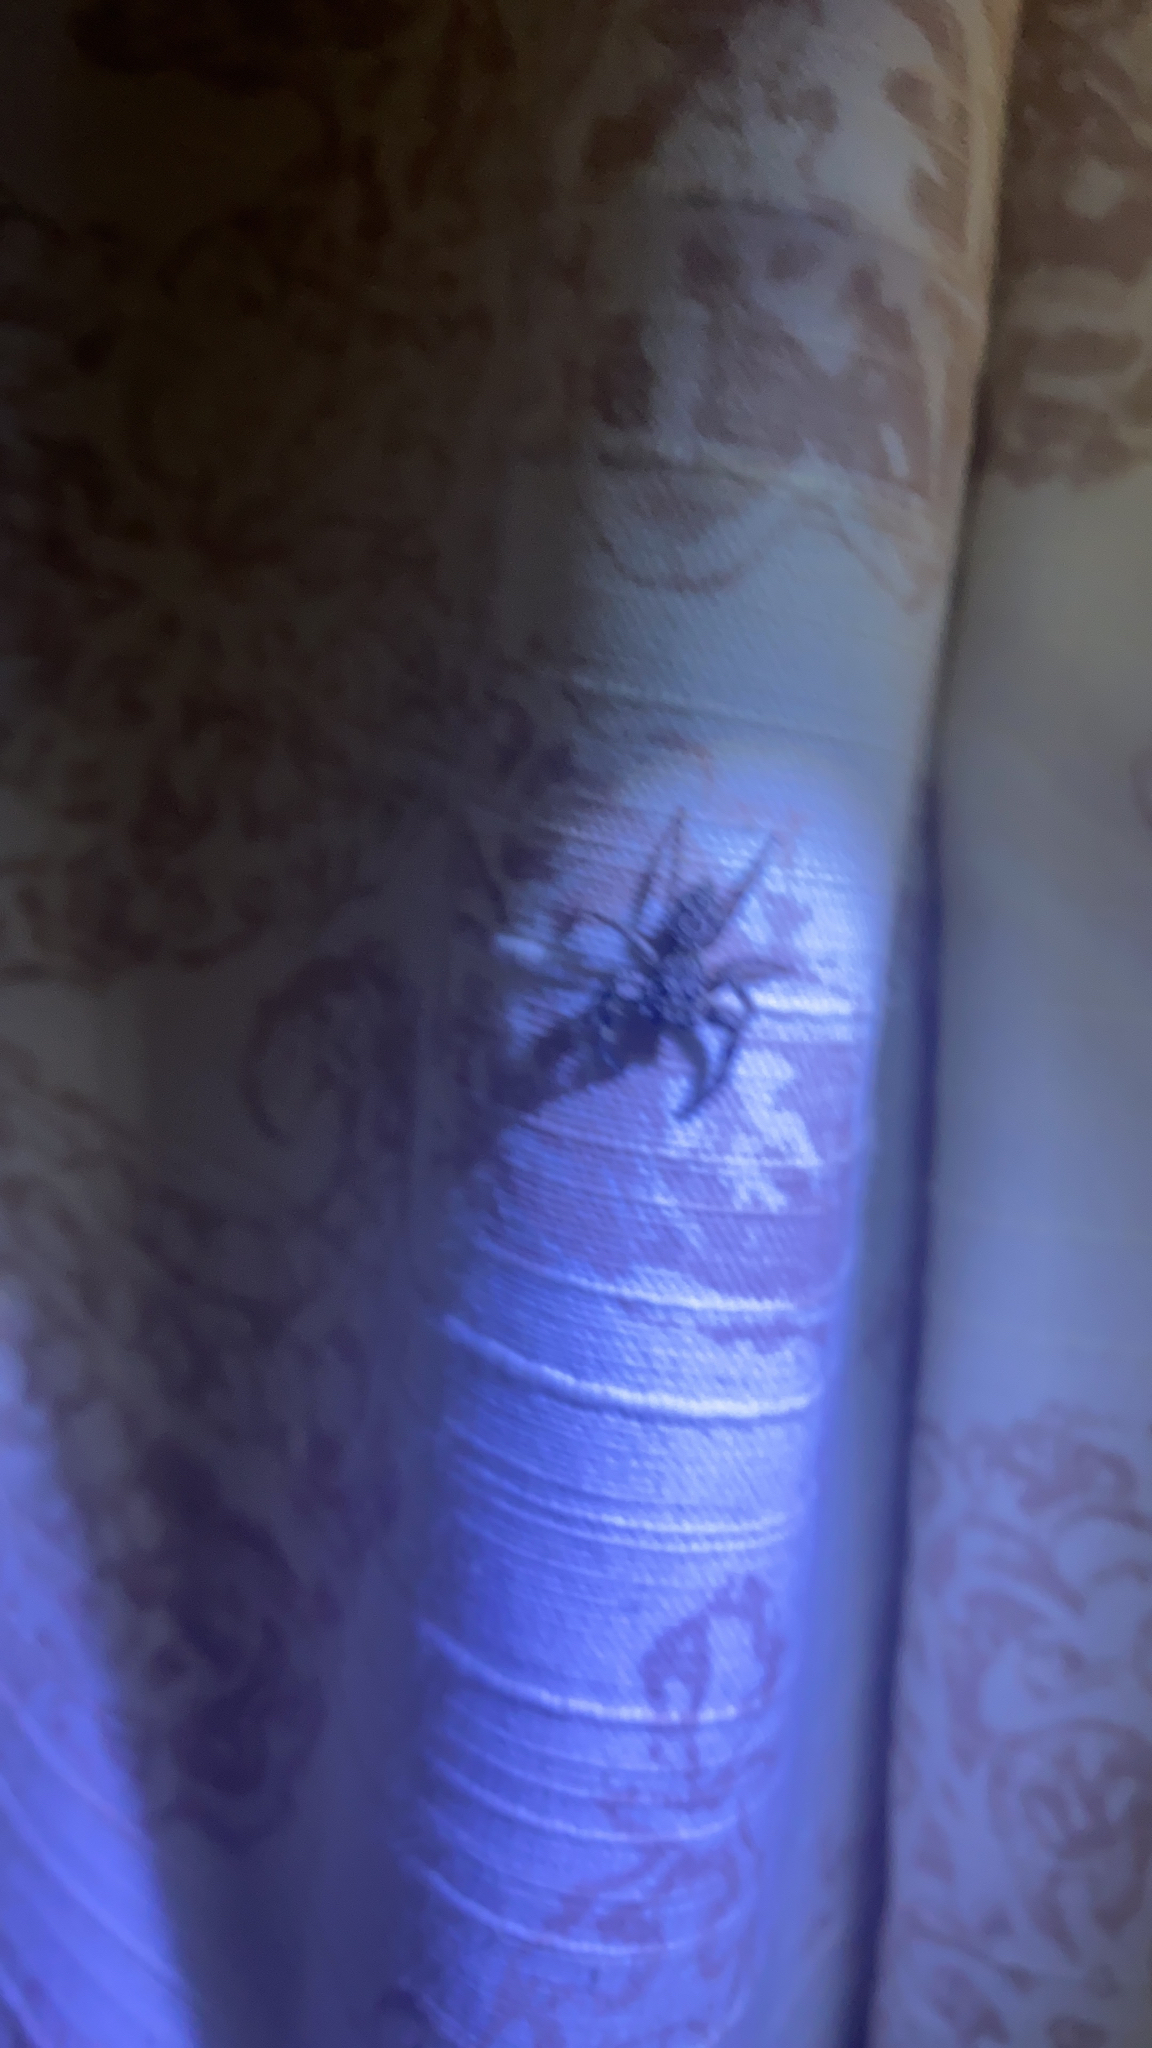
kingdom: Animalia
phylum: Arthropoda
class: Arachnida
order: Araneae
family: Salticidae
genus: Platycryptus
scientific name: Platycryptus undatus
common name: Tan jumping spider
